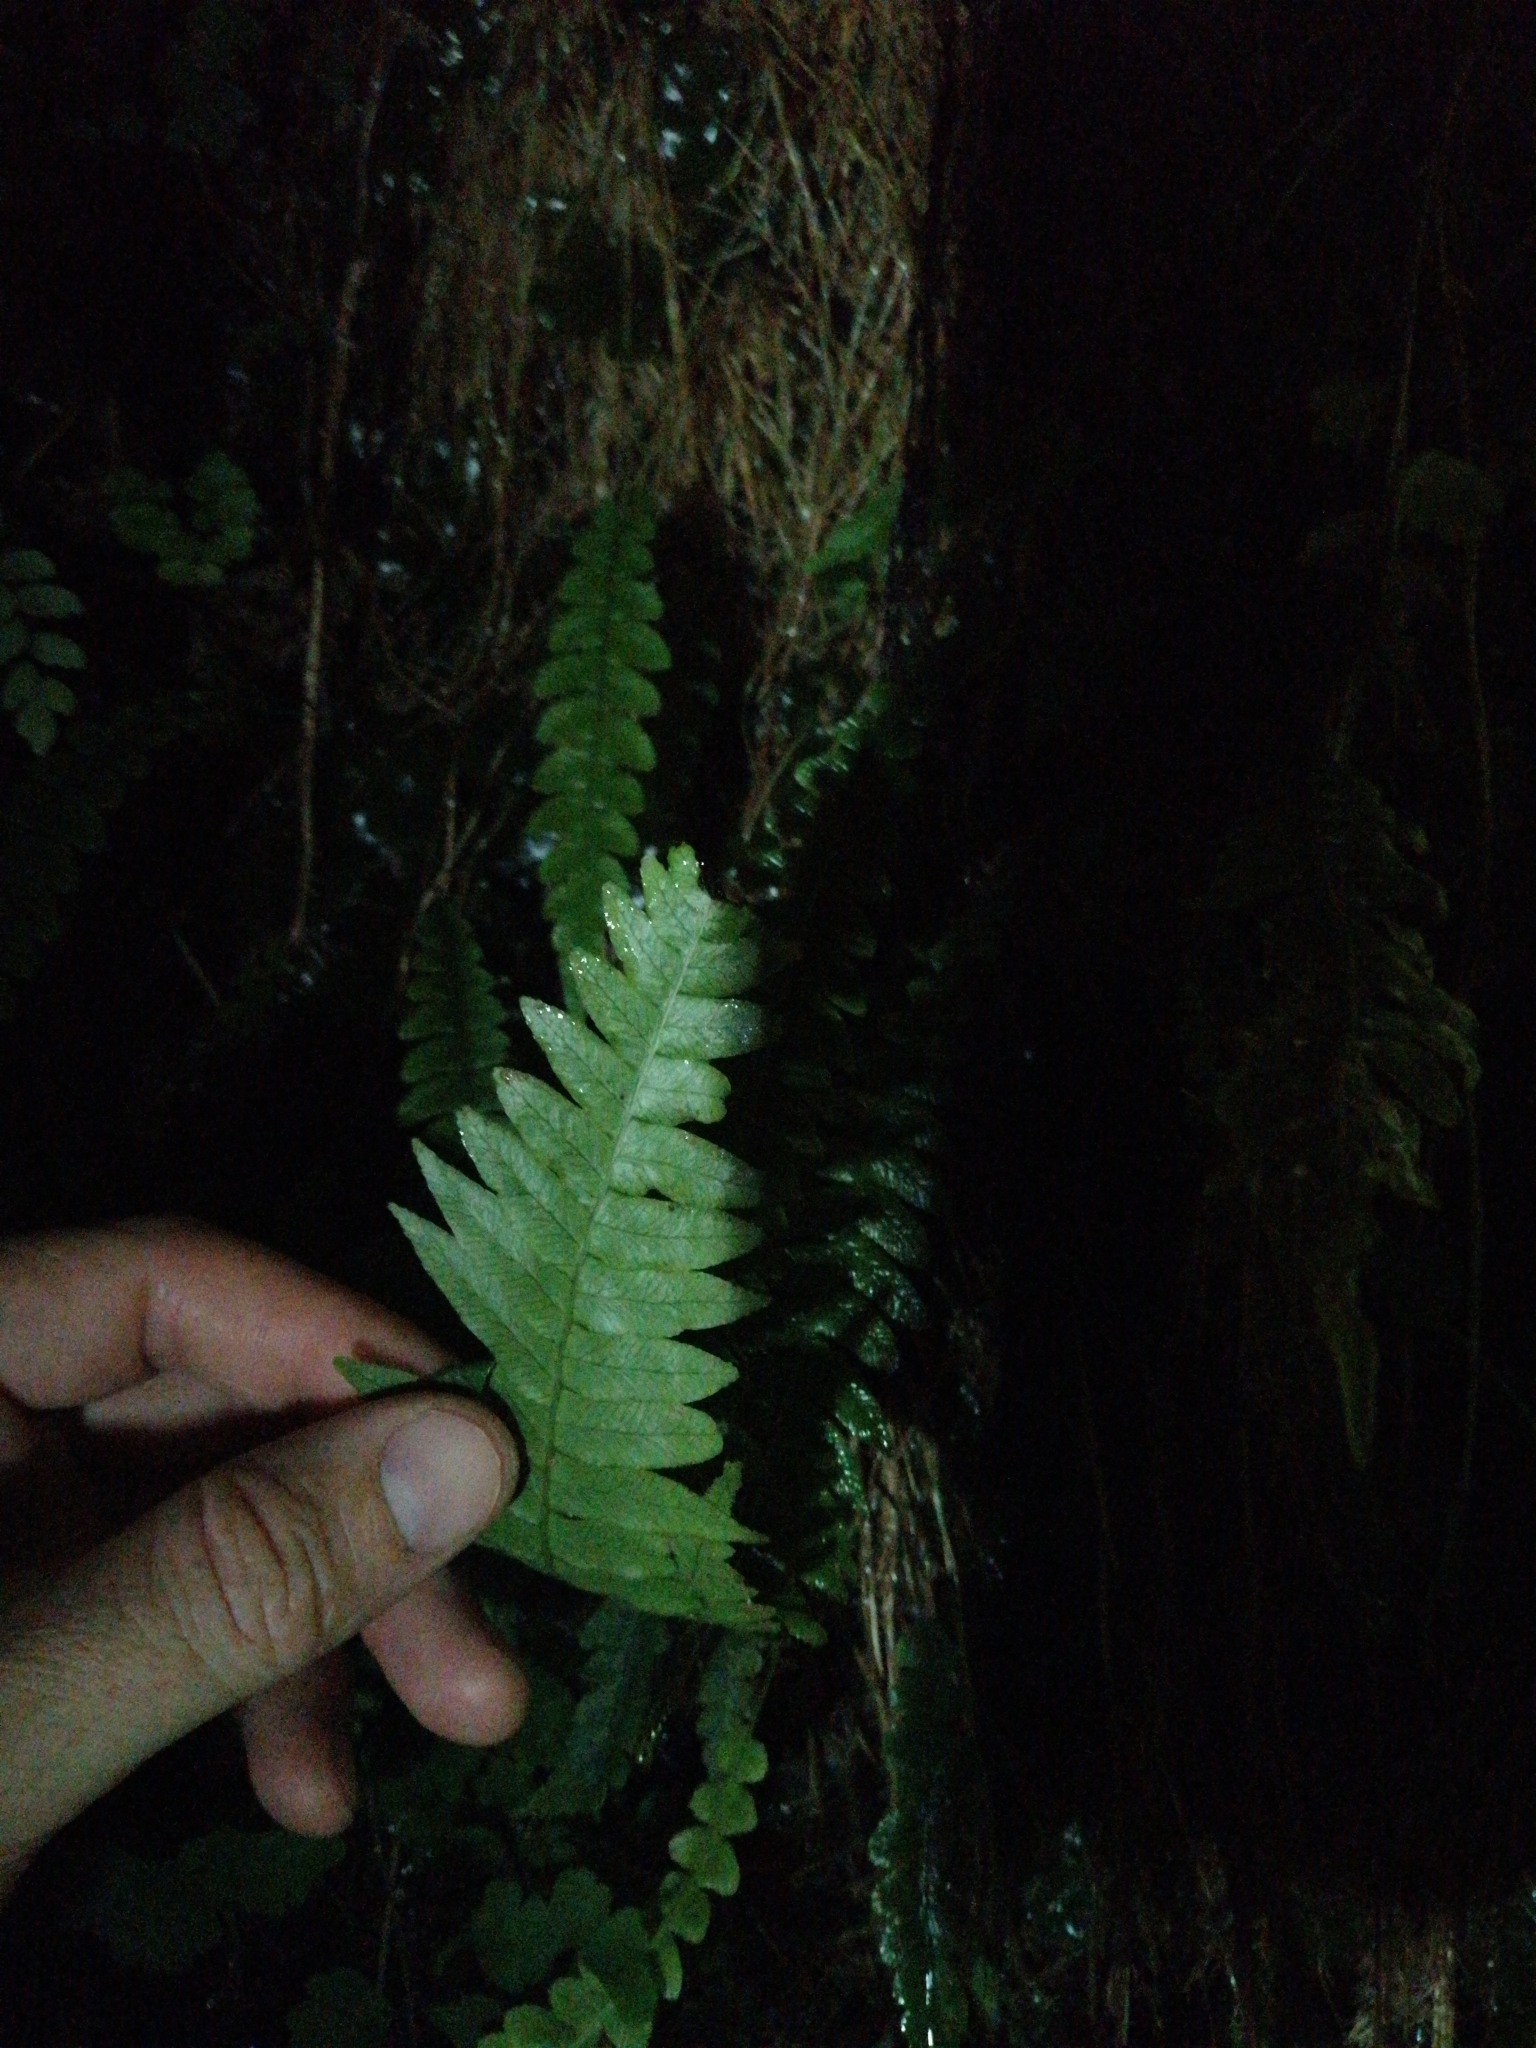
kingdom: Plantae
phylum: Tracheophyta
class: Polypodiopsida
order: Polypodiales
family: Blechnaceae
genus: Austroblechnum
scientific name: Austroblechnum lanceolatum
